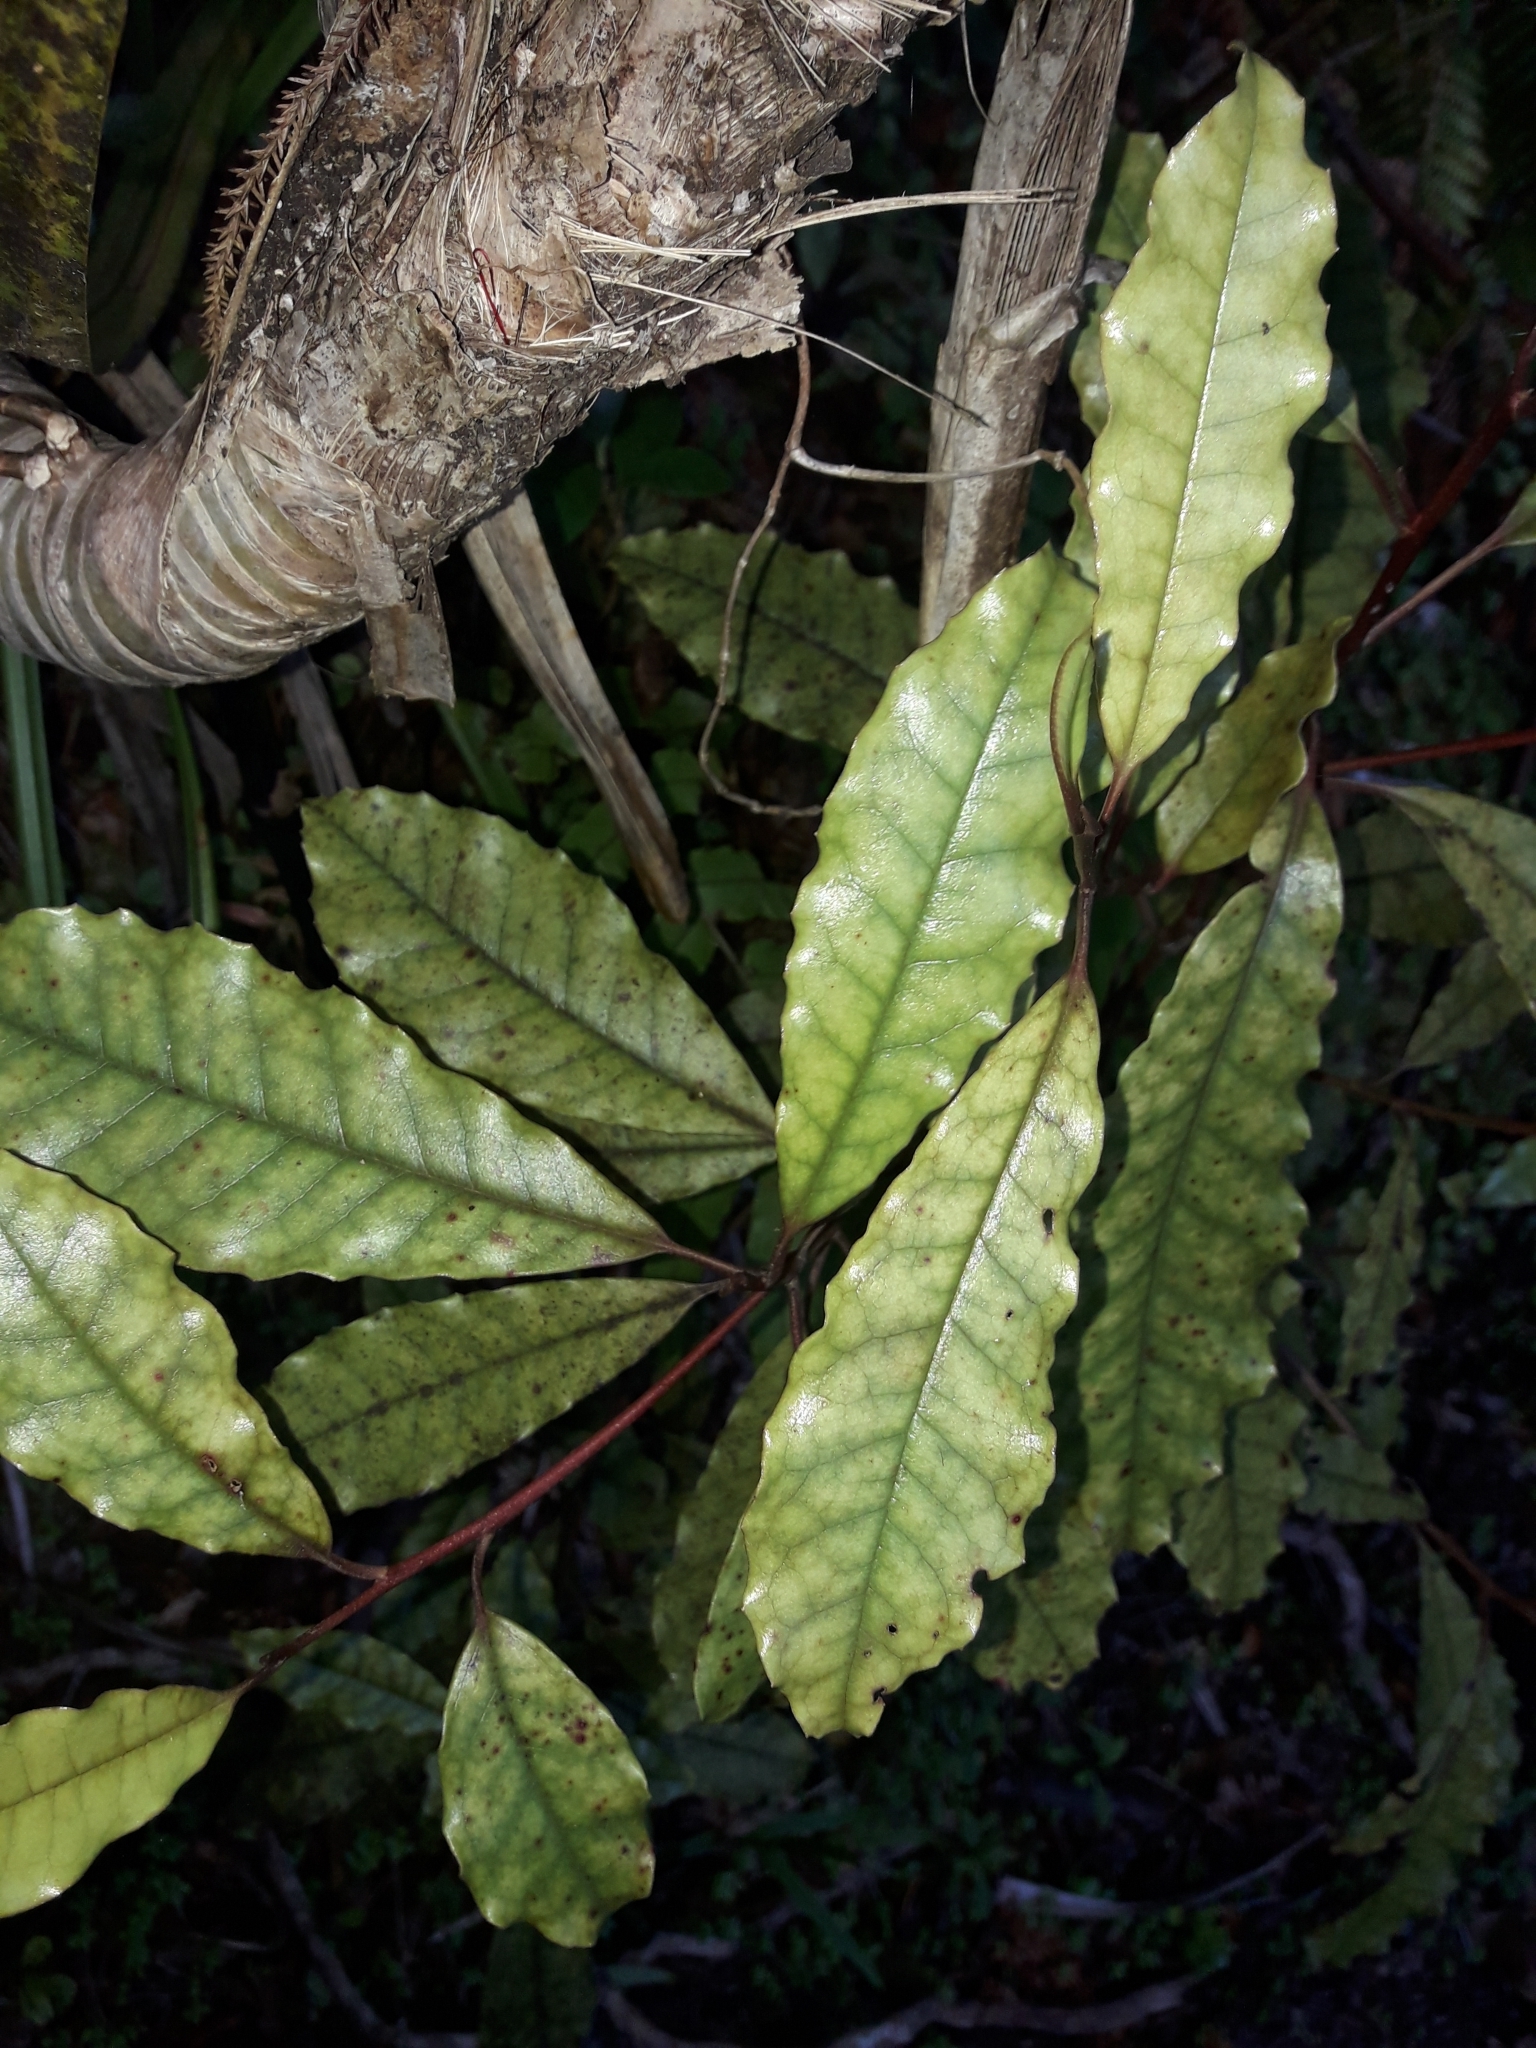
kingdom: Plantae
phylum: Tracheophyta
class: Magnoliopsida
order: Paracryphiales
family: Paracryphiaceae
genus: Quintinia
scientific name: Quintinia serrata
